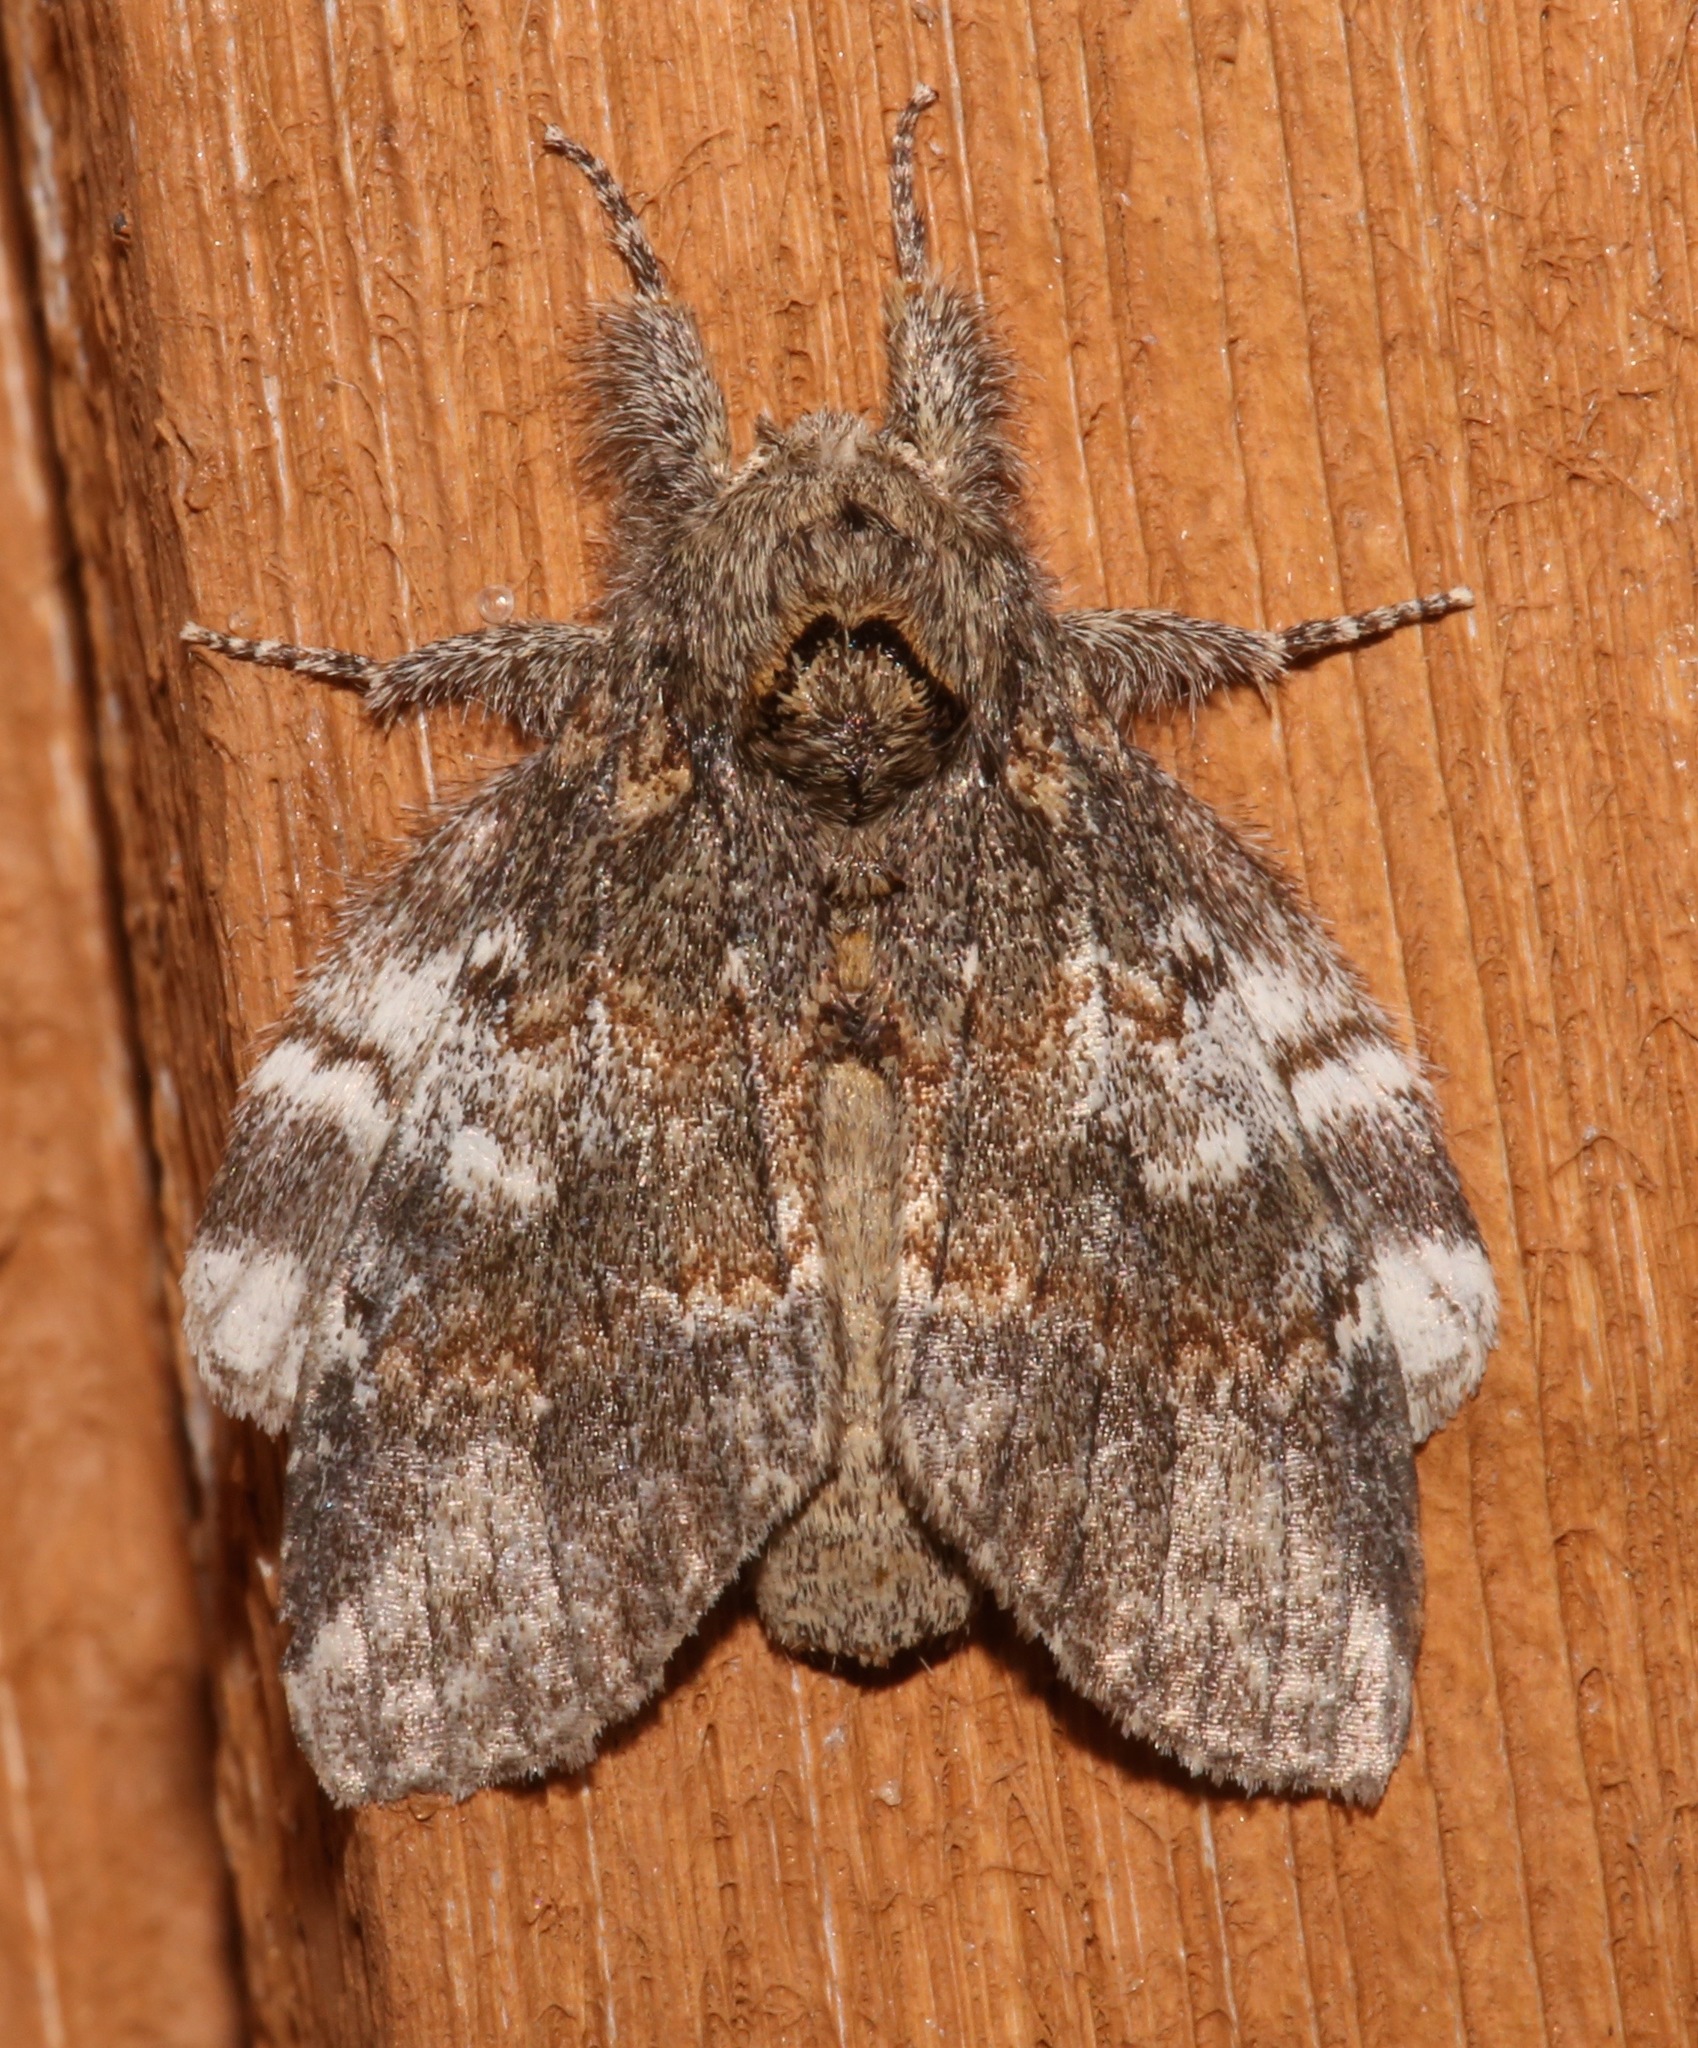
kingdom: Animalia
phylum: Arthropoda
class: Insecta
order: Lepidoptera
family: Notodontidae
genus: Peridea
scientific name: Peridea angulosa
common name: Angulose prominent
